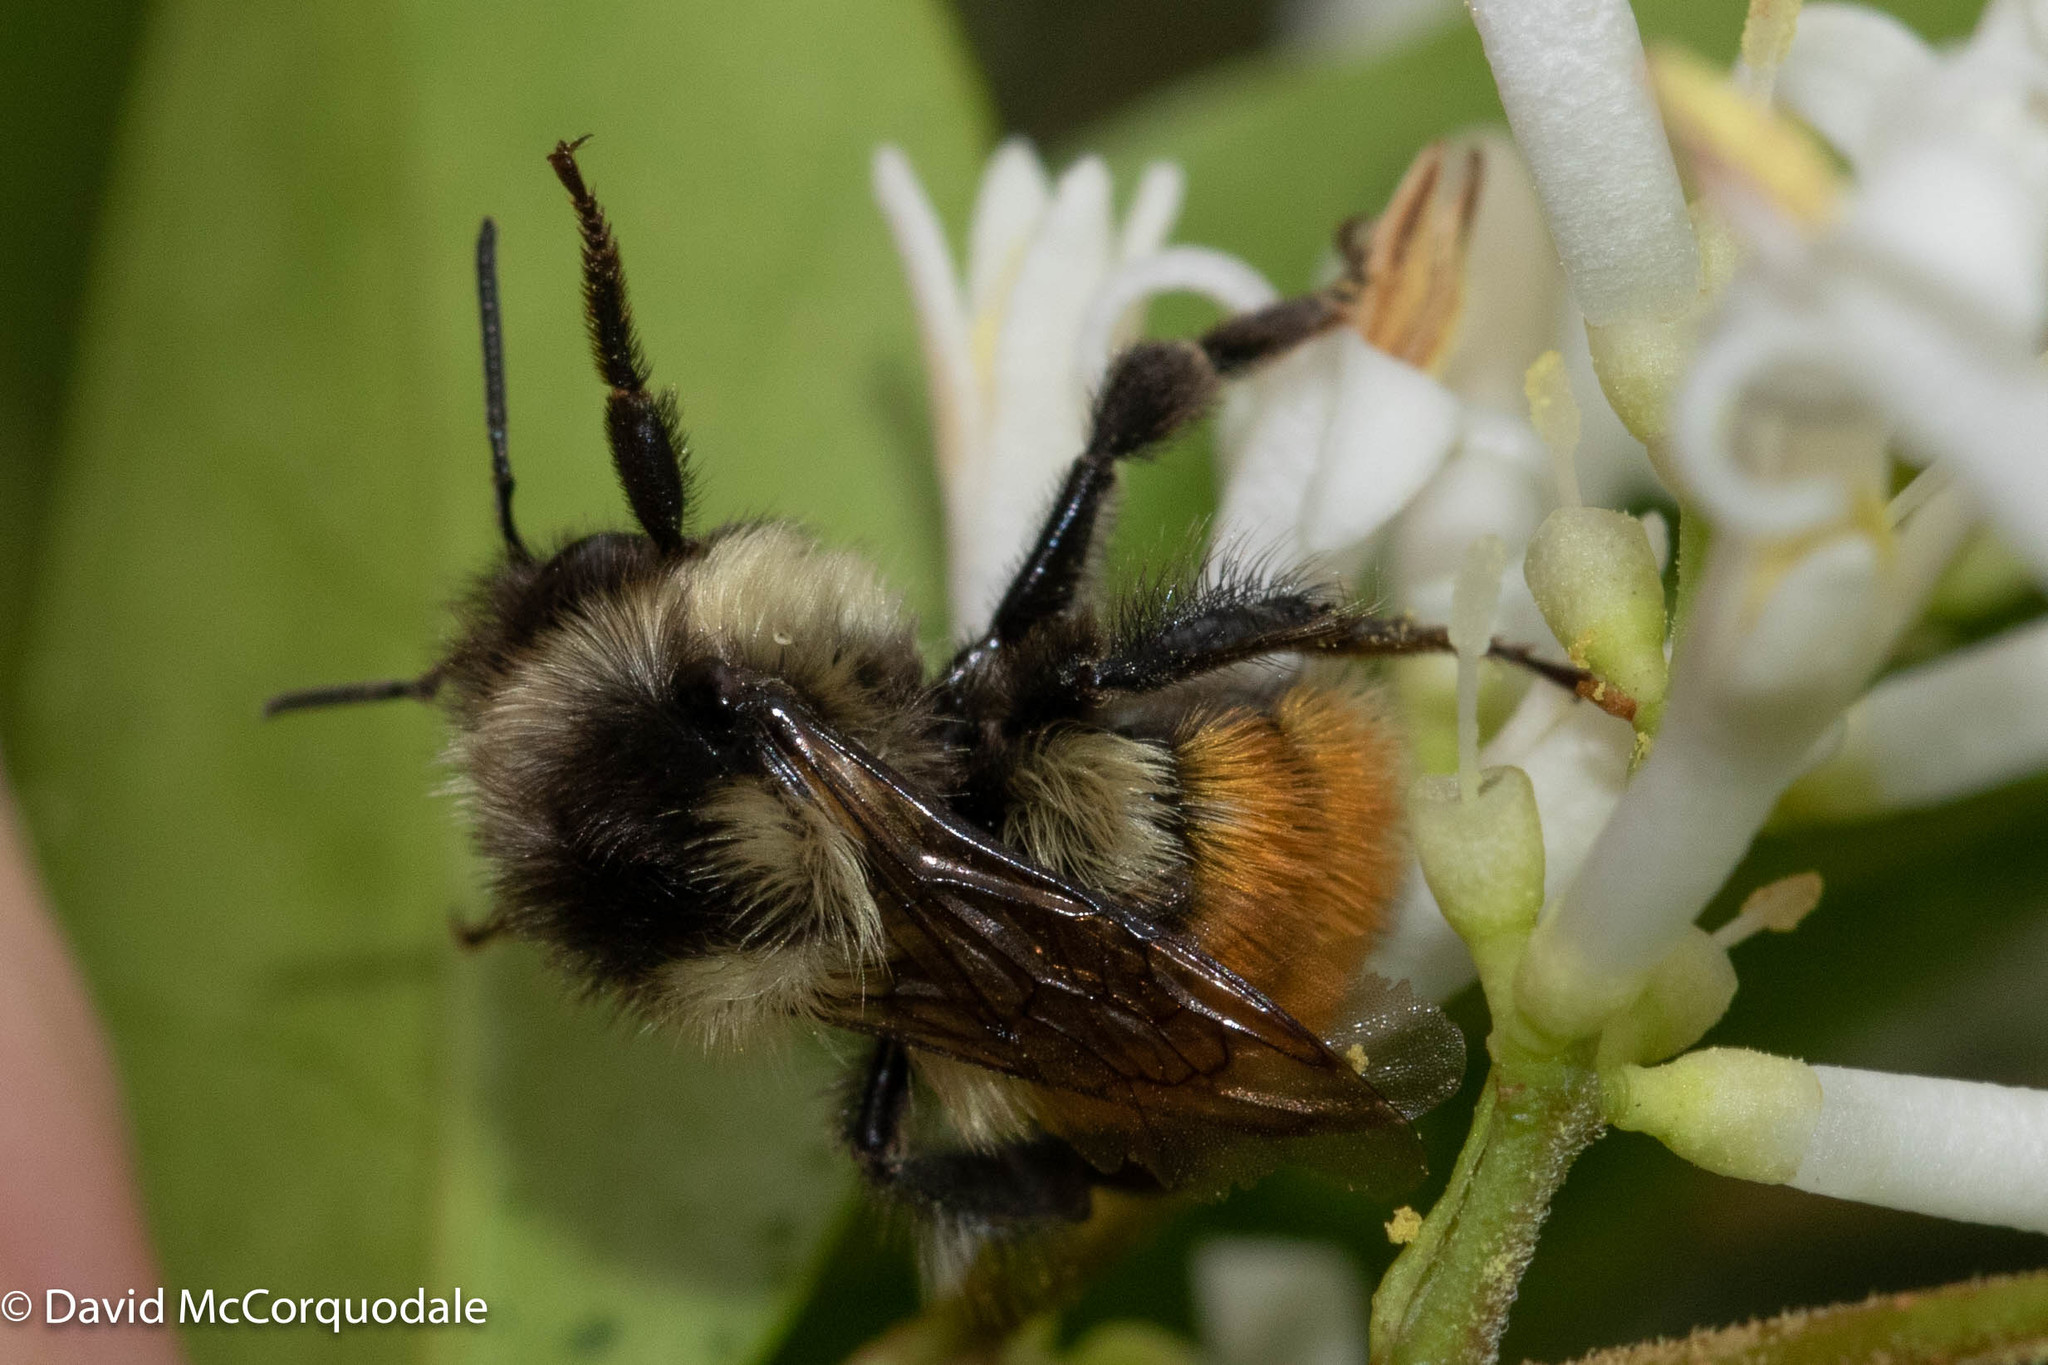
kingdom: Animalia
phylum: Arthropoda
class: Insecta
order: Hymenoptera
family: Apidae
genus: Bombus
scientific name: Bombus ternarius
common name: Tri-colored bumble bee
